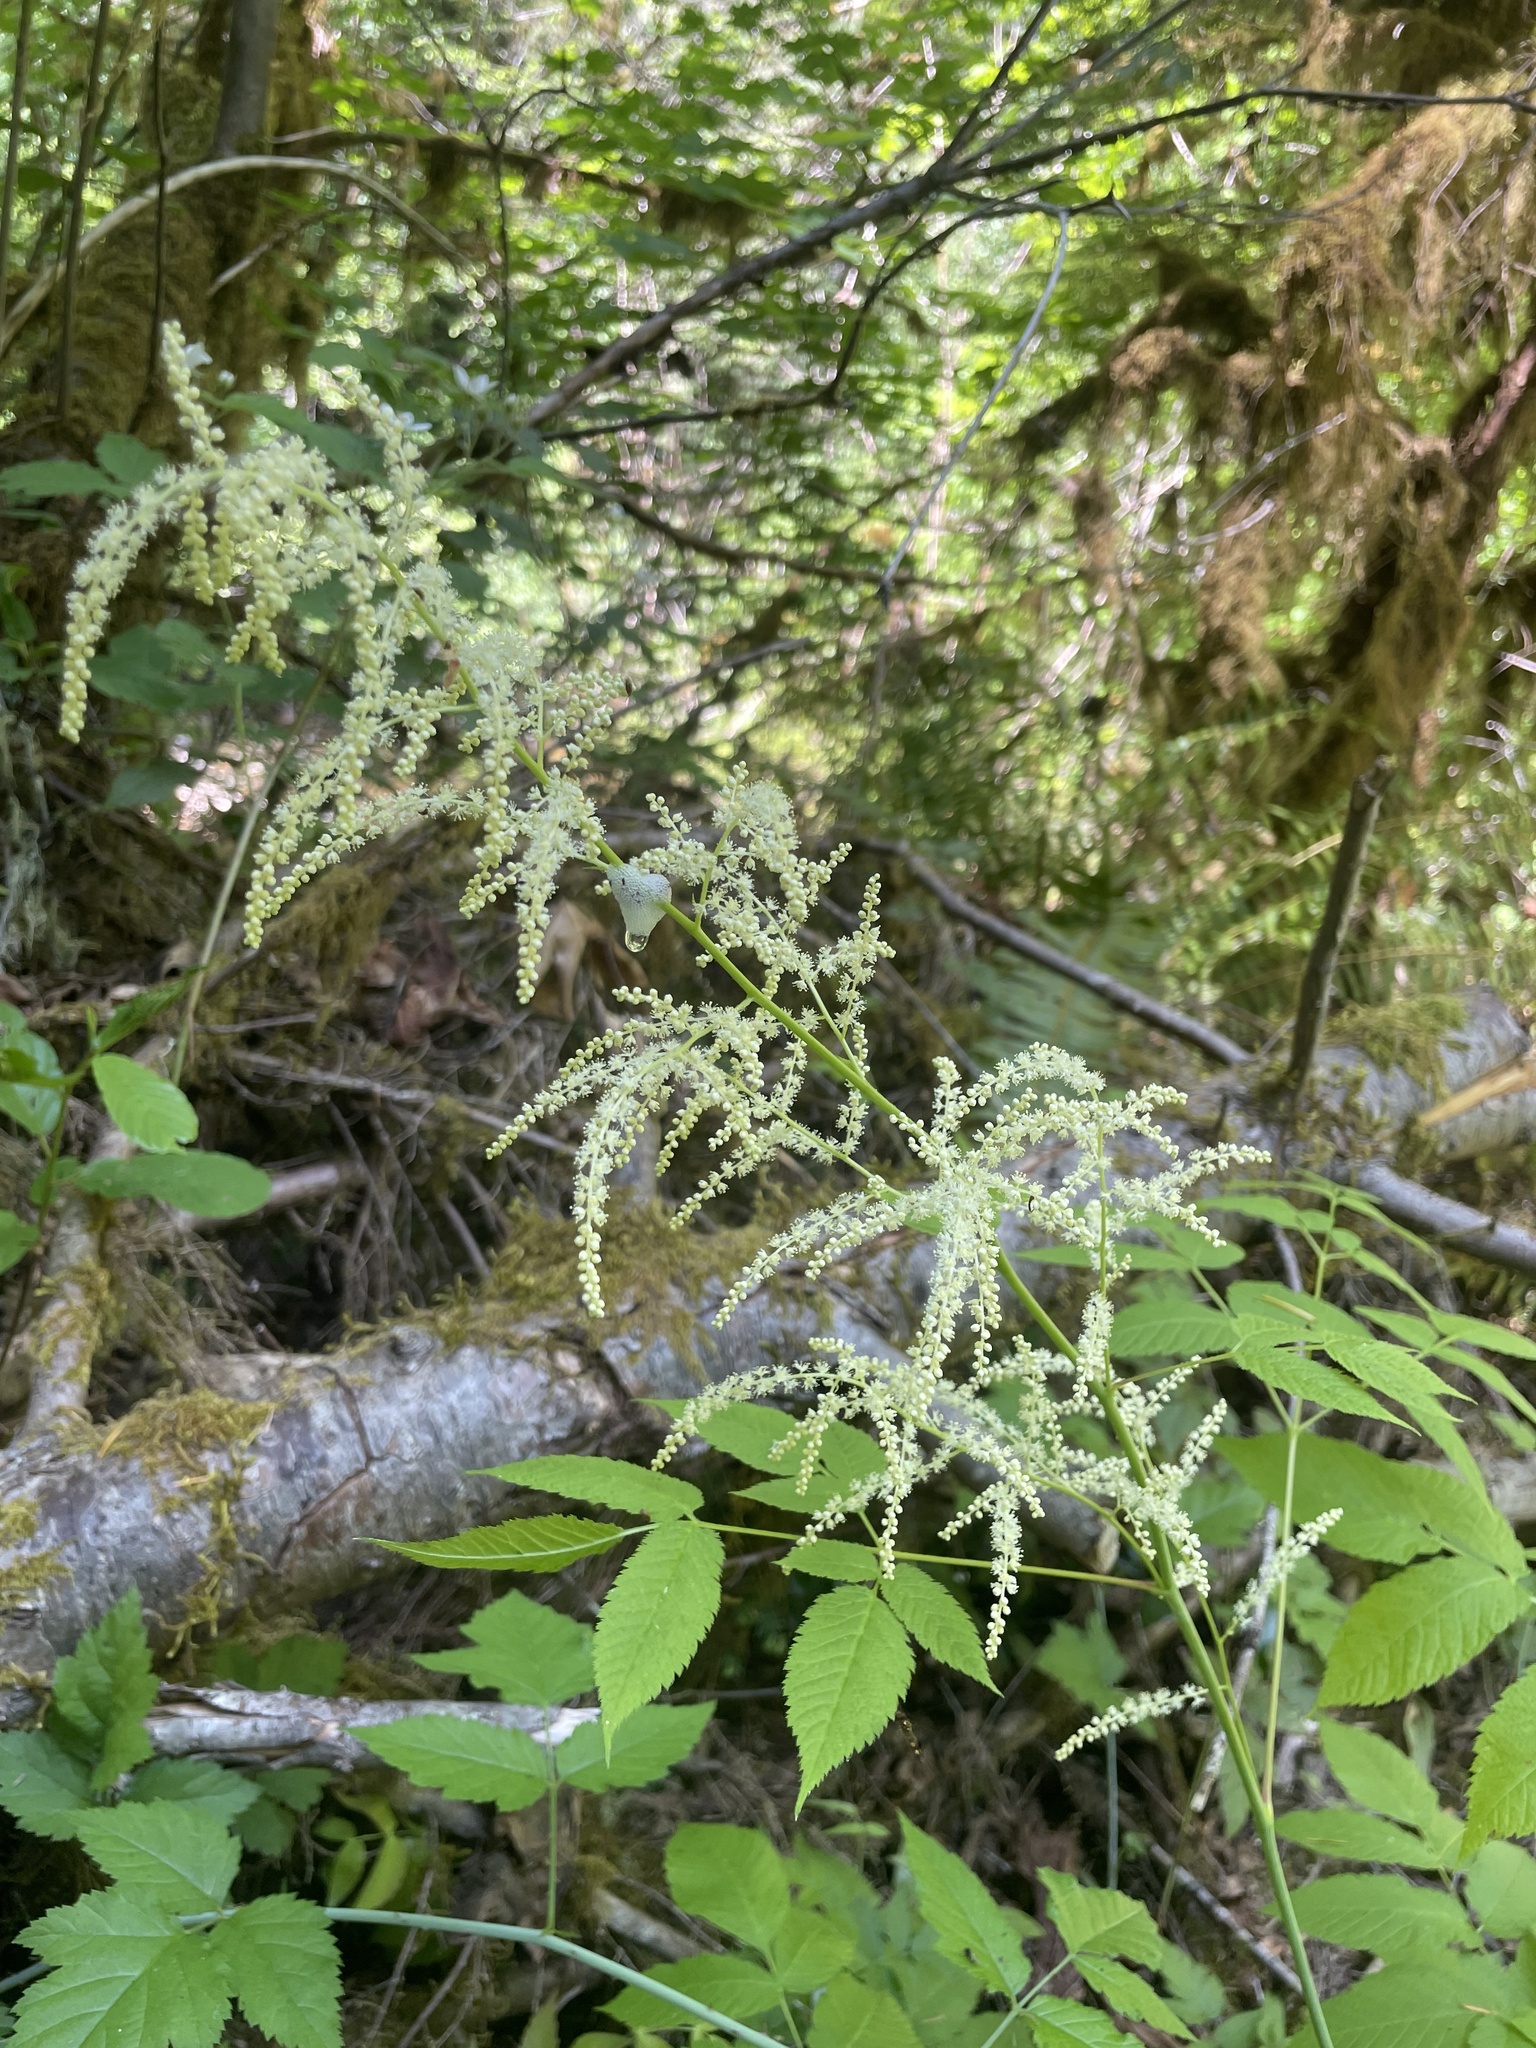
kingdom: Plantae
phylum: Tracheophyta
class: Magnoliopsida
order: Rosales
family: Rosaceae
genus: Aruncus
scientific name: Aruncus dioicus
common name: Buck's-beard
